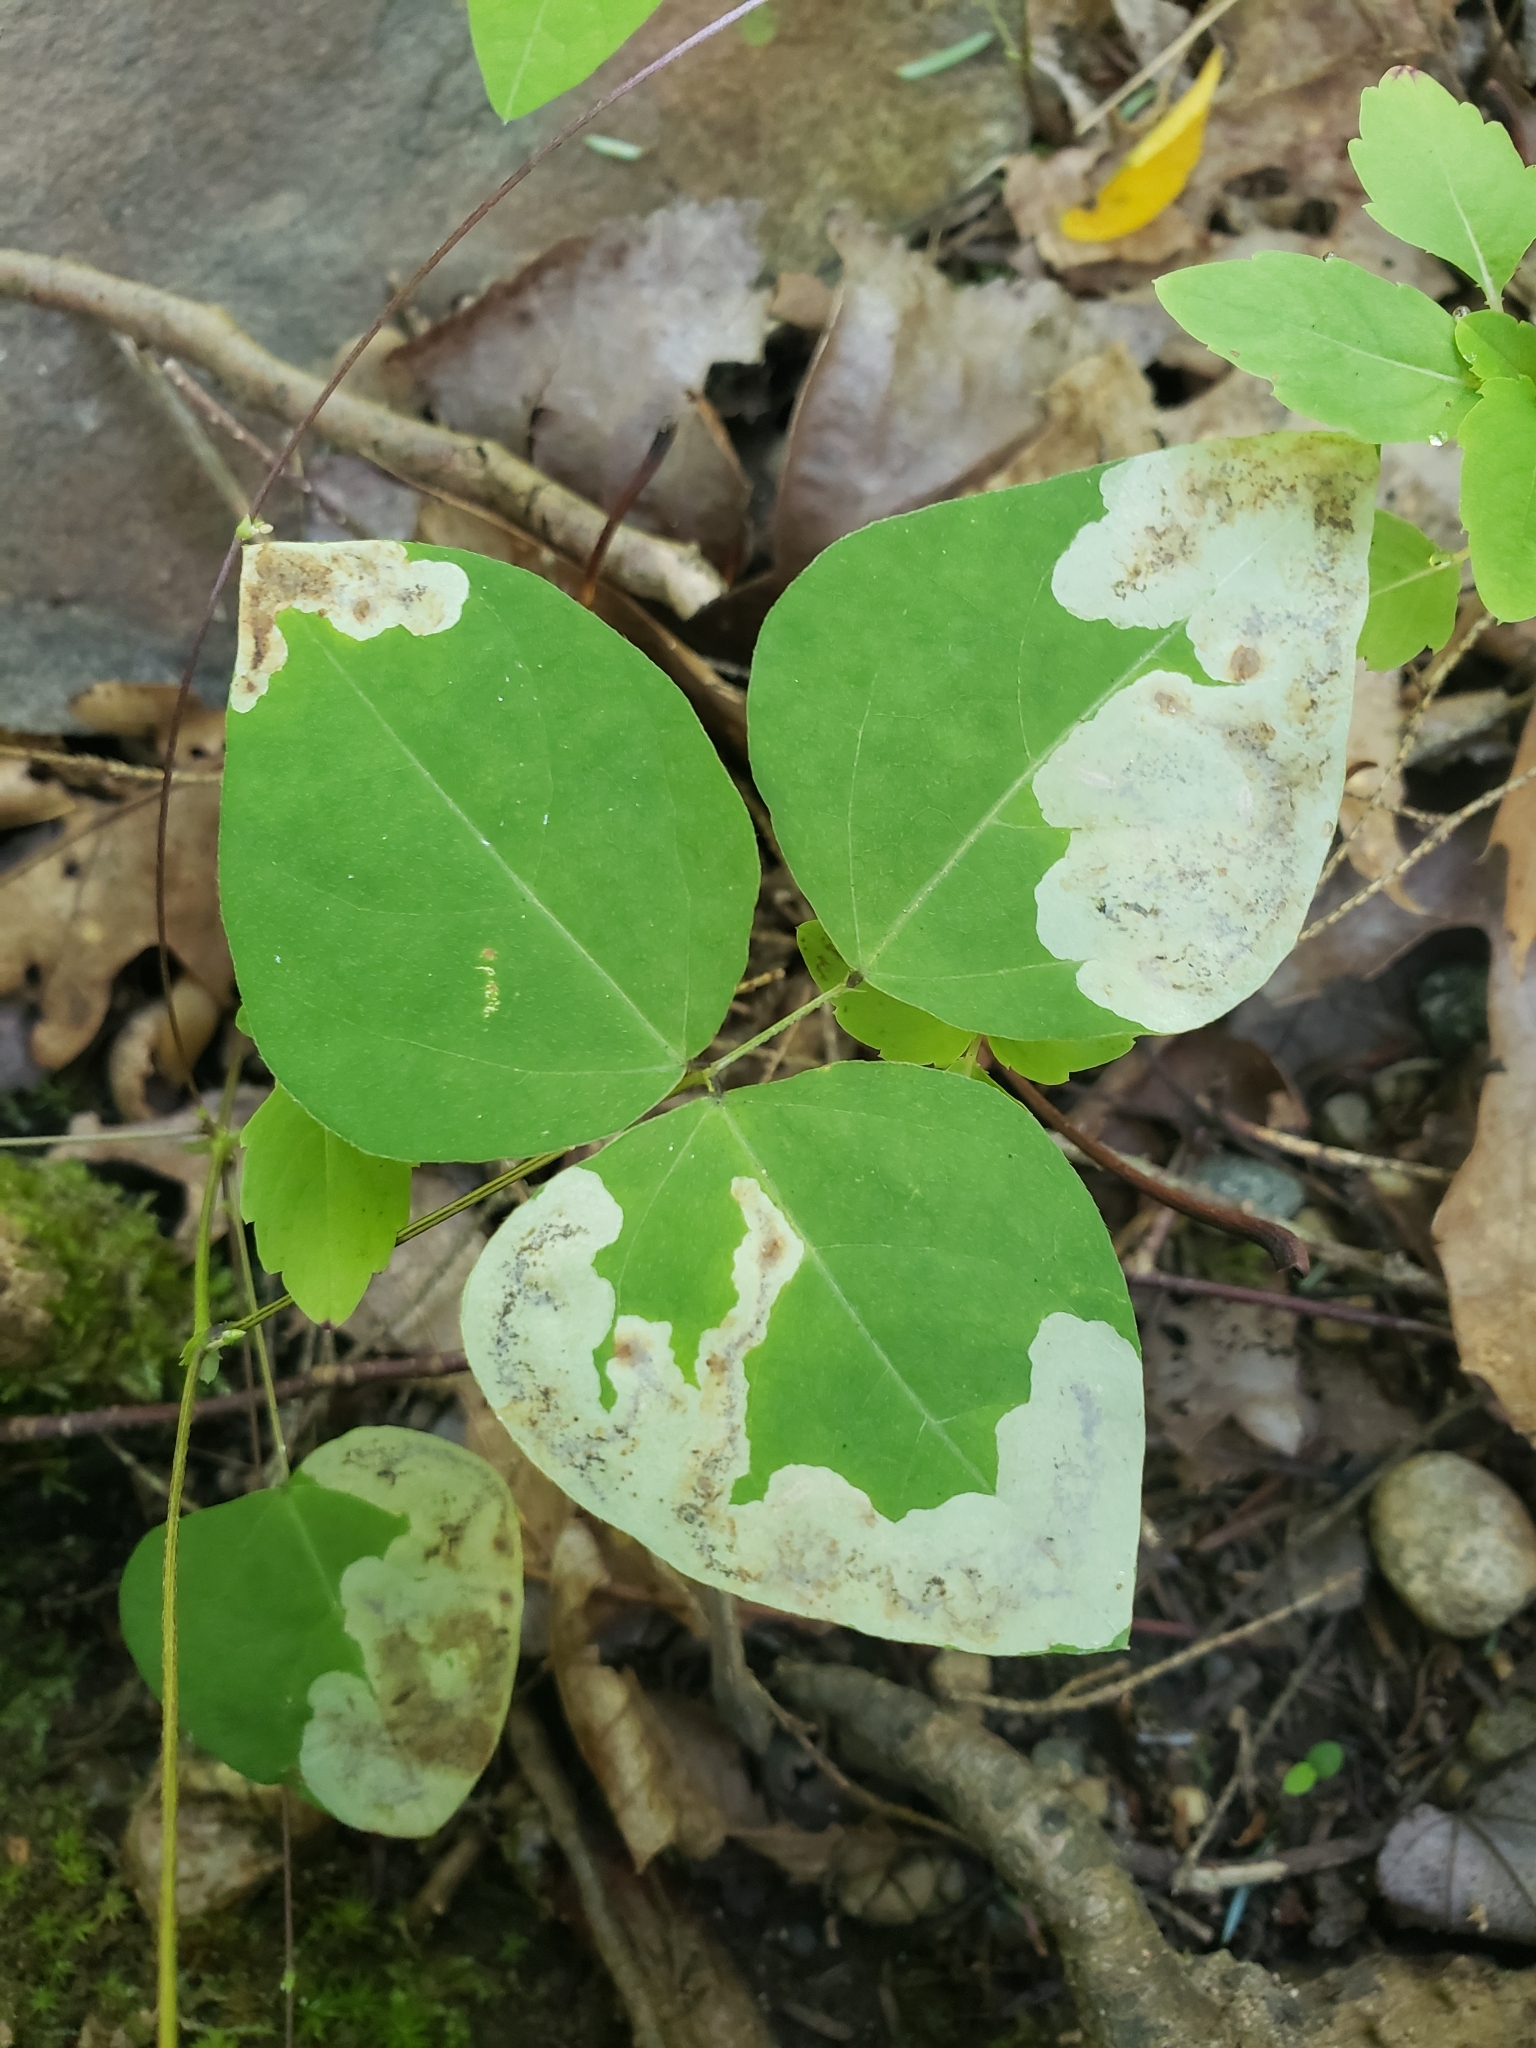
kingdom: Animalia
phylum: Arthropoda
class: Insecta
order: Lepidoptera
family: Gracillariidae
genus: Leucanthiza
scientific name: Leucanthiza amphicarpeaefoliella
